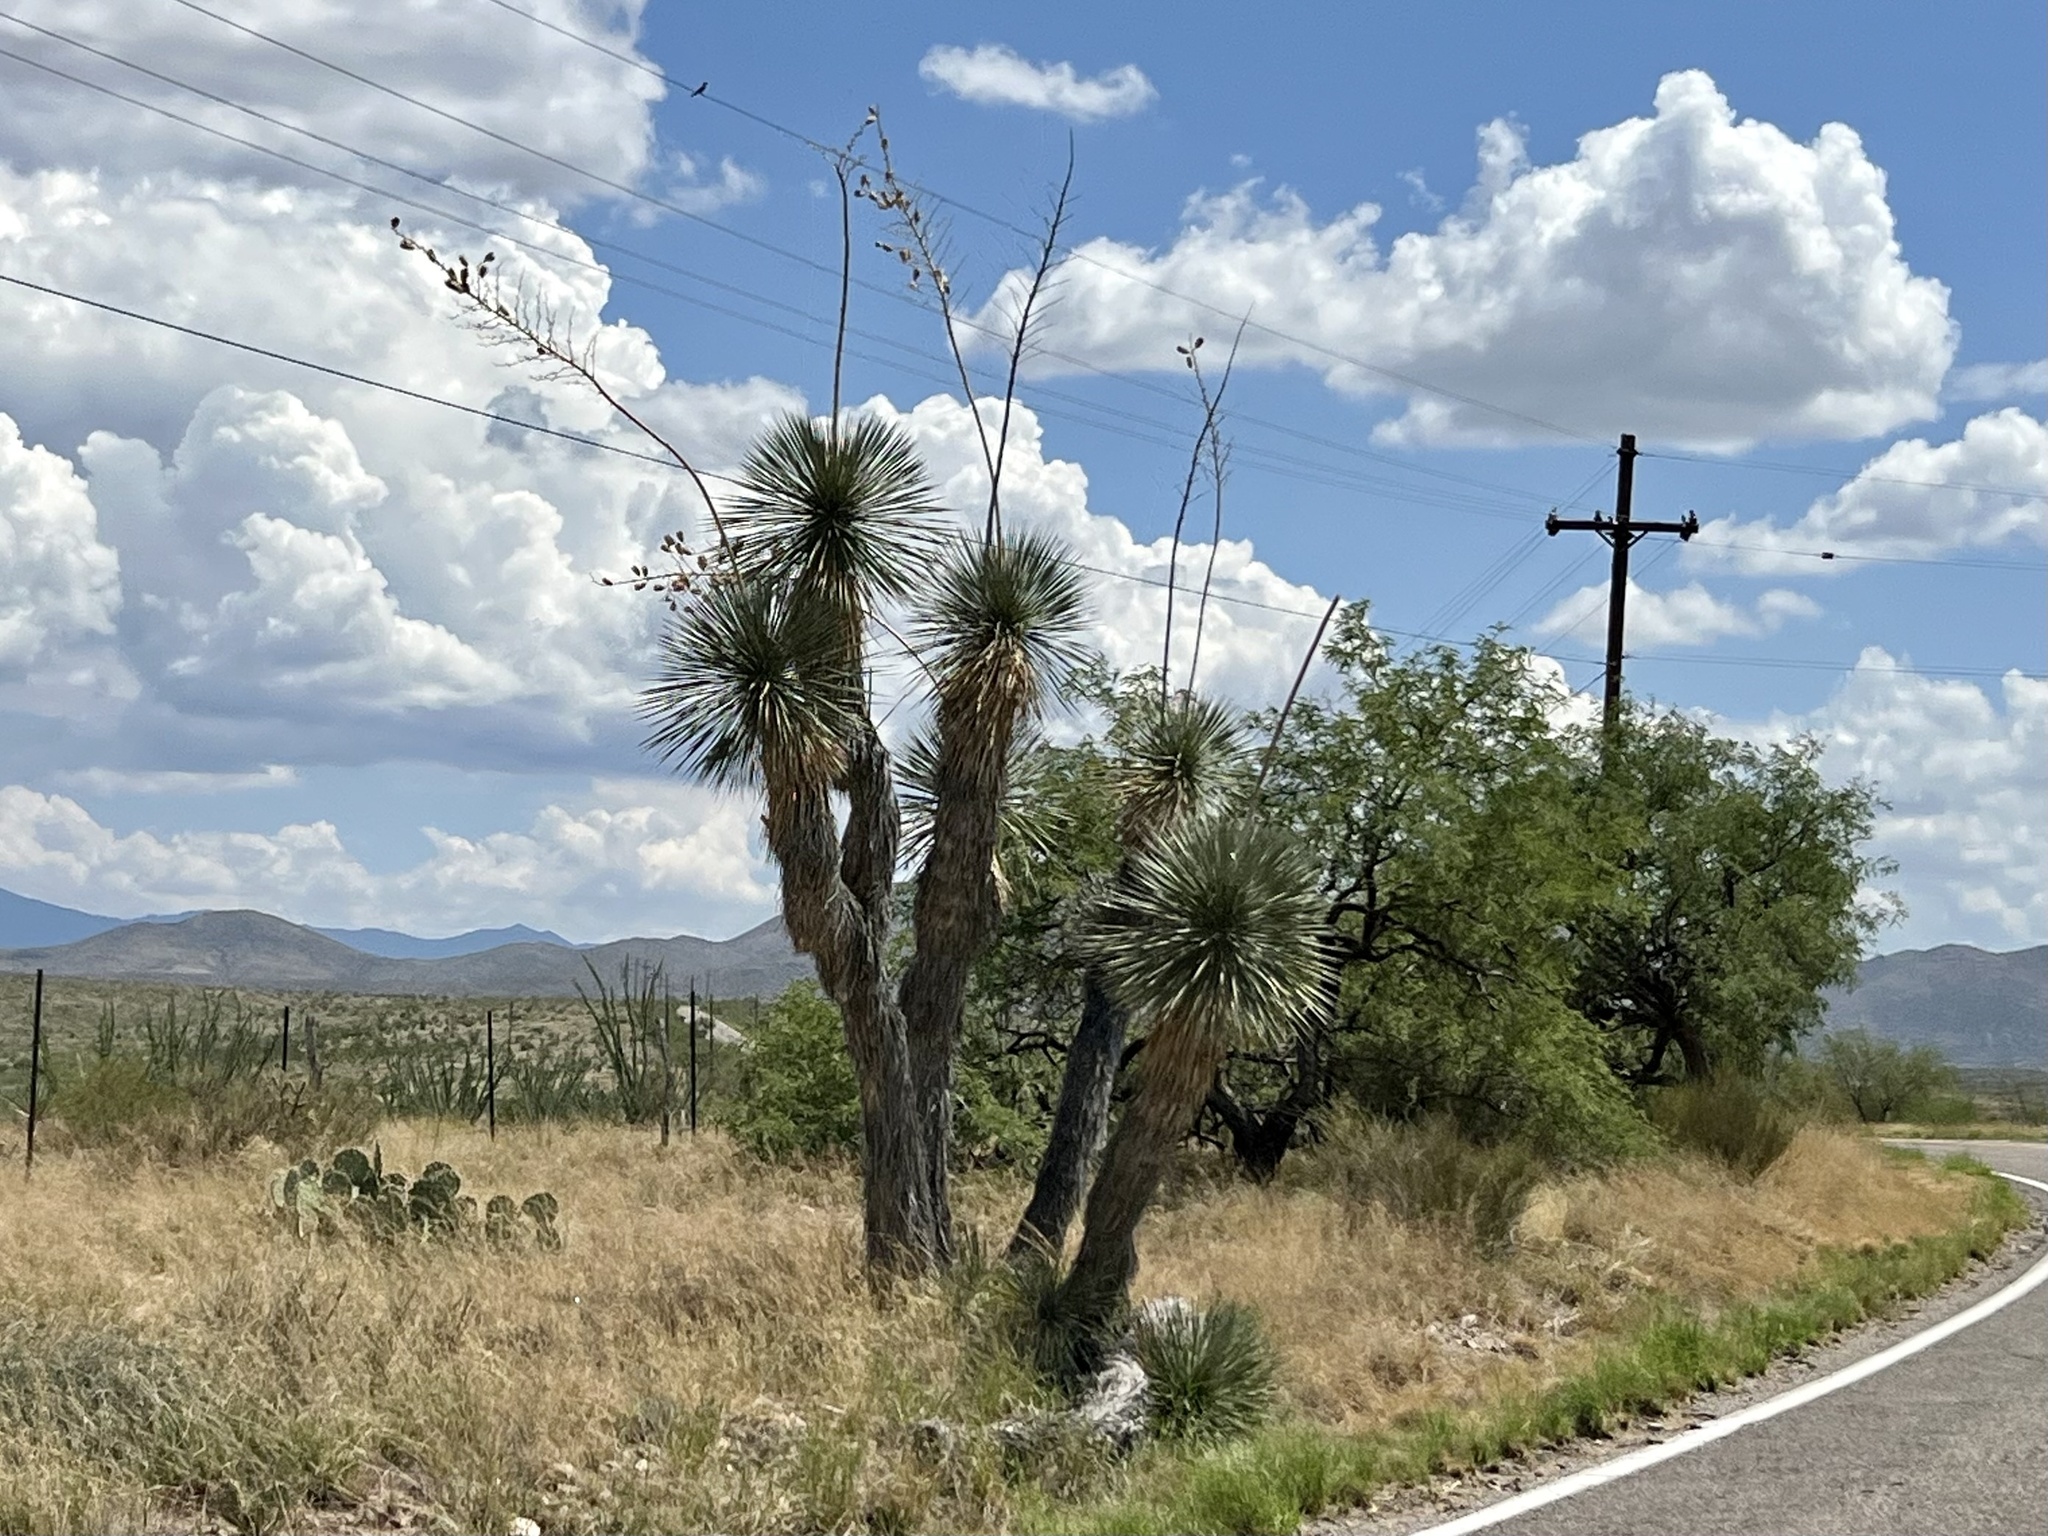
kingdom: Plantae
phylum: Tracheophyta
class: Liliopsida
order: Asparagales
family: Asparagaceae
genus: Yucca
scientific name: Yucca elata
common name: Palmella
